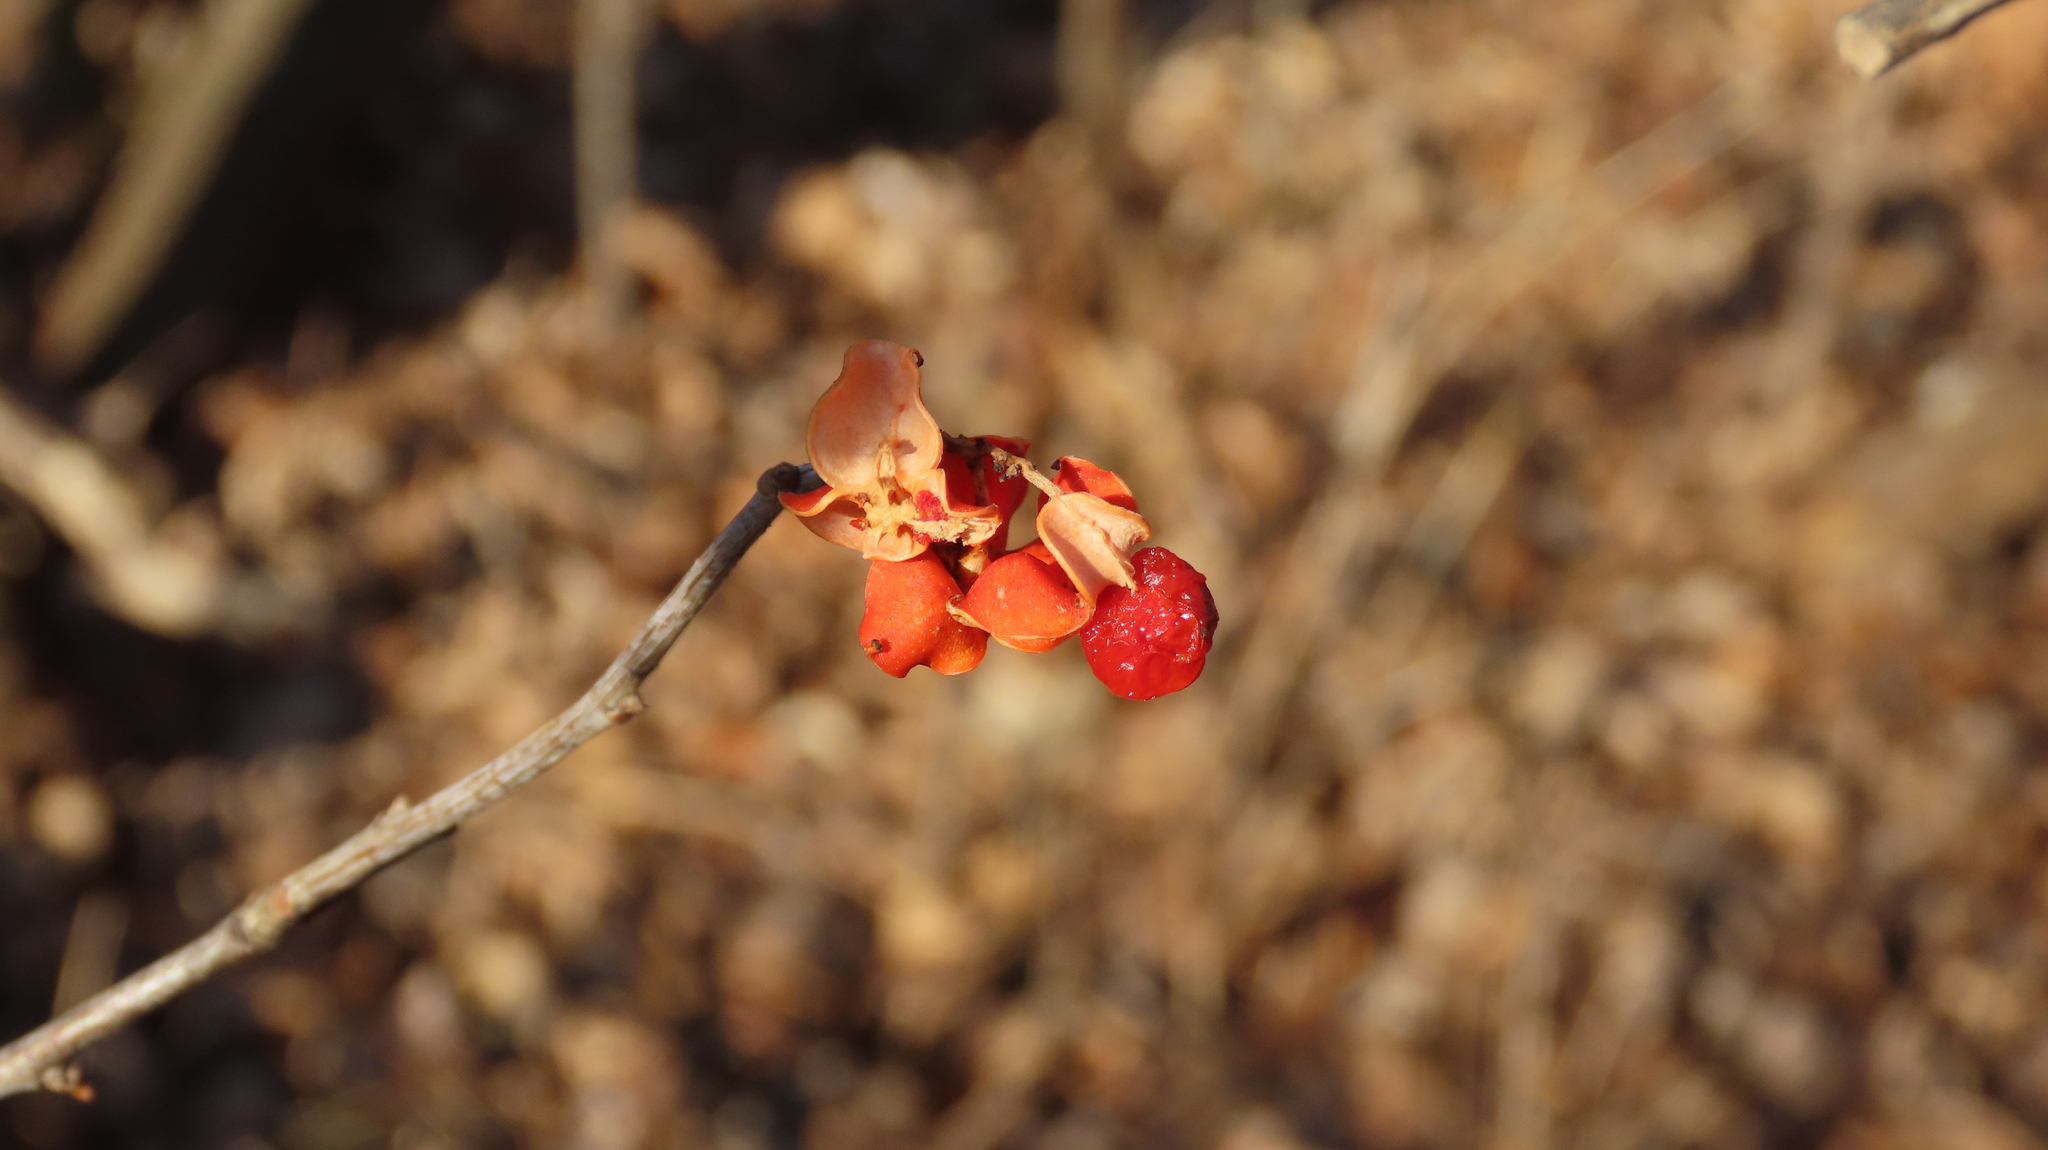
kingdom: Plantae
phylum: Tracheophyta
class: Magnoliopsida
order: Celastrales
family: Celastraceae
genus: Celastrus
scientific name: Celastrus scandens
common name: American bittersweet
